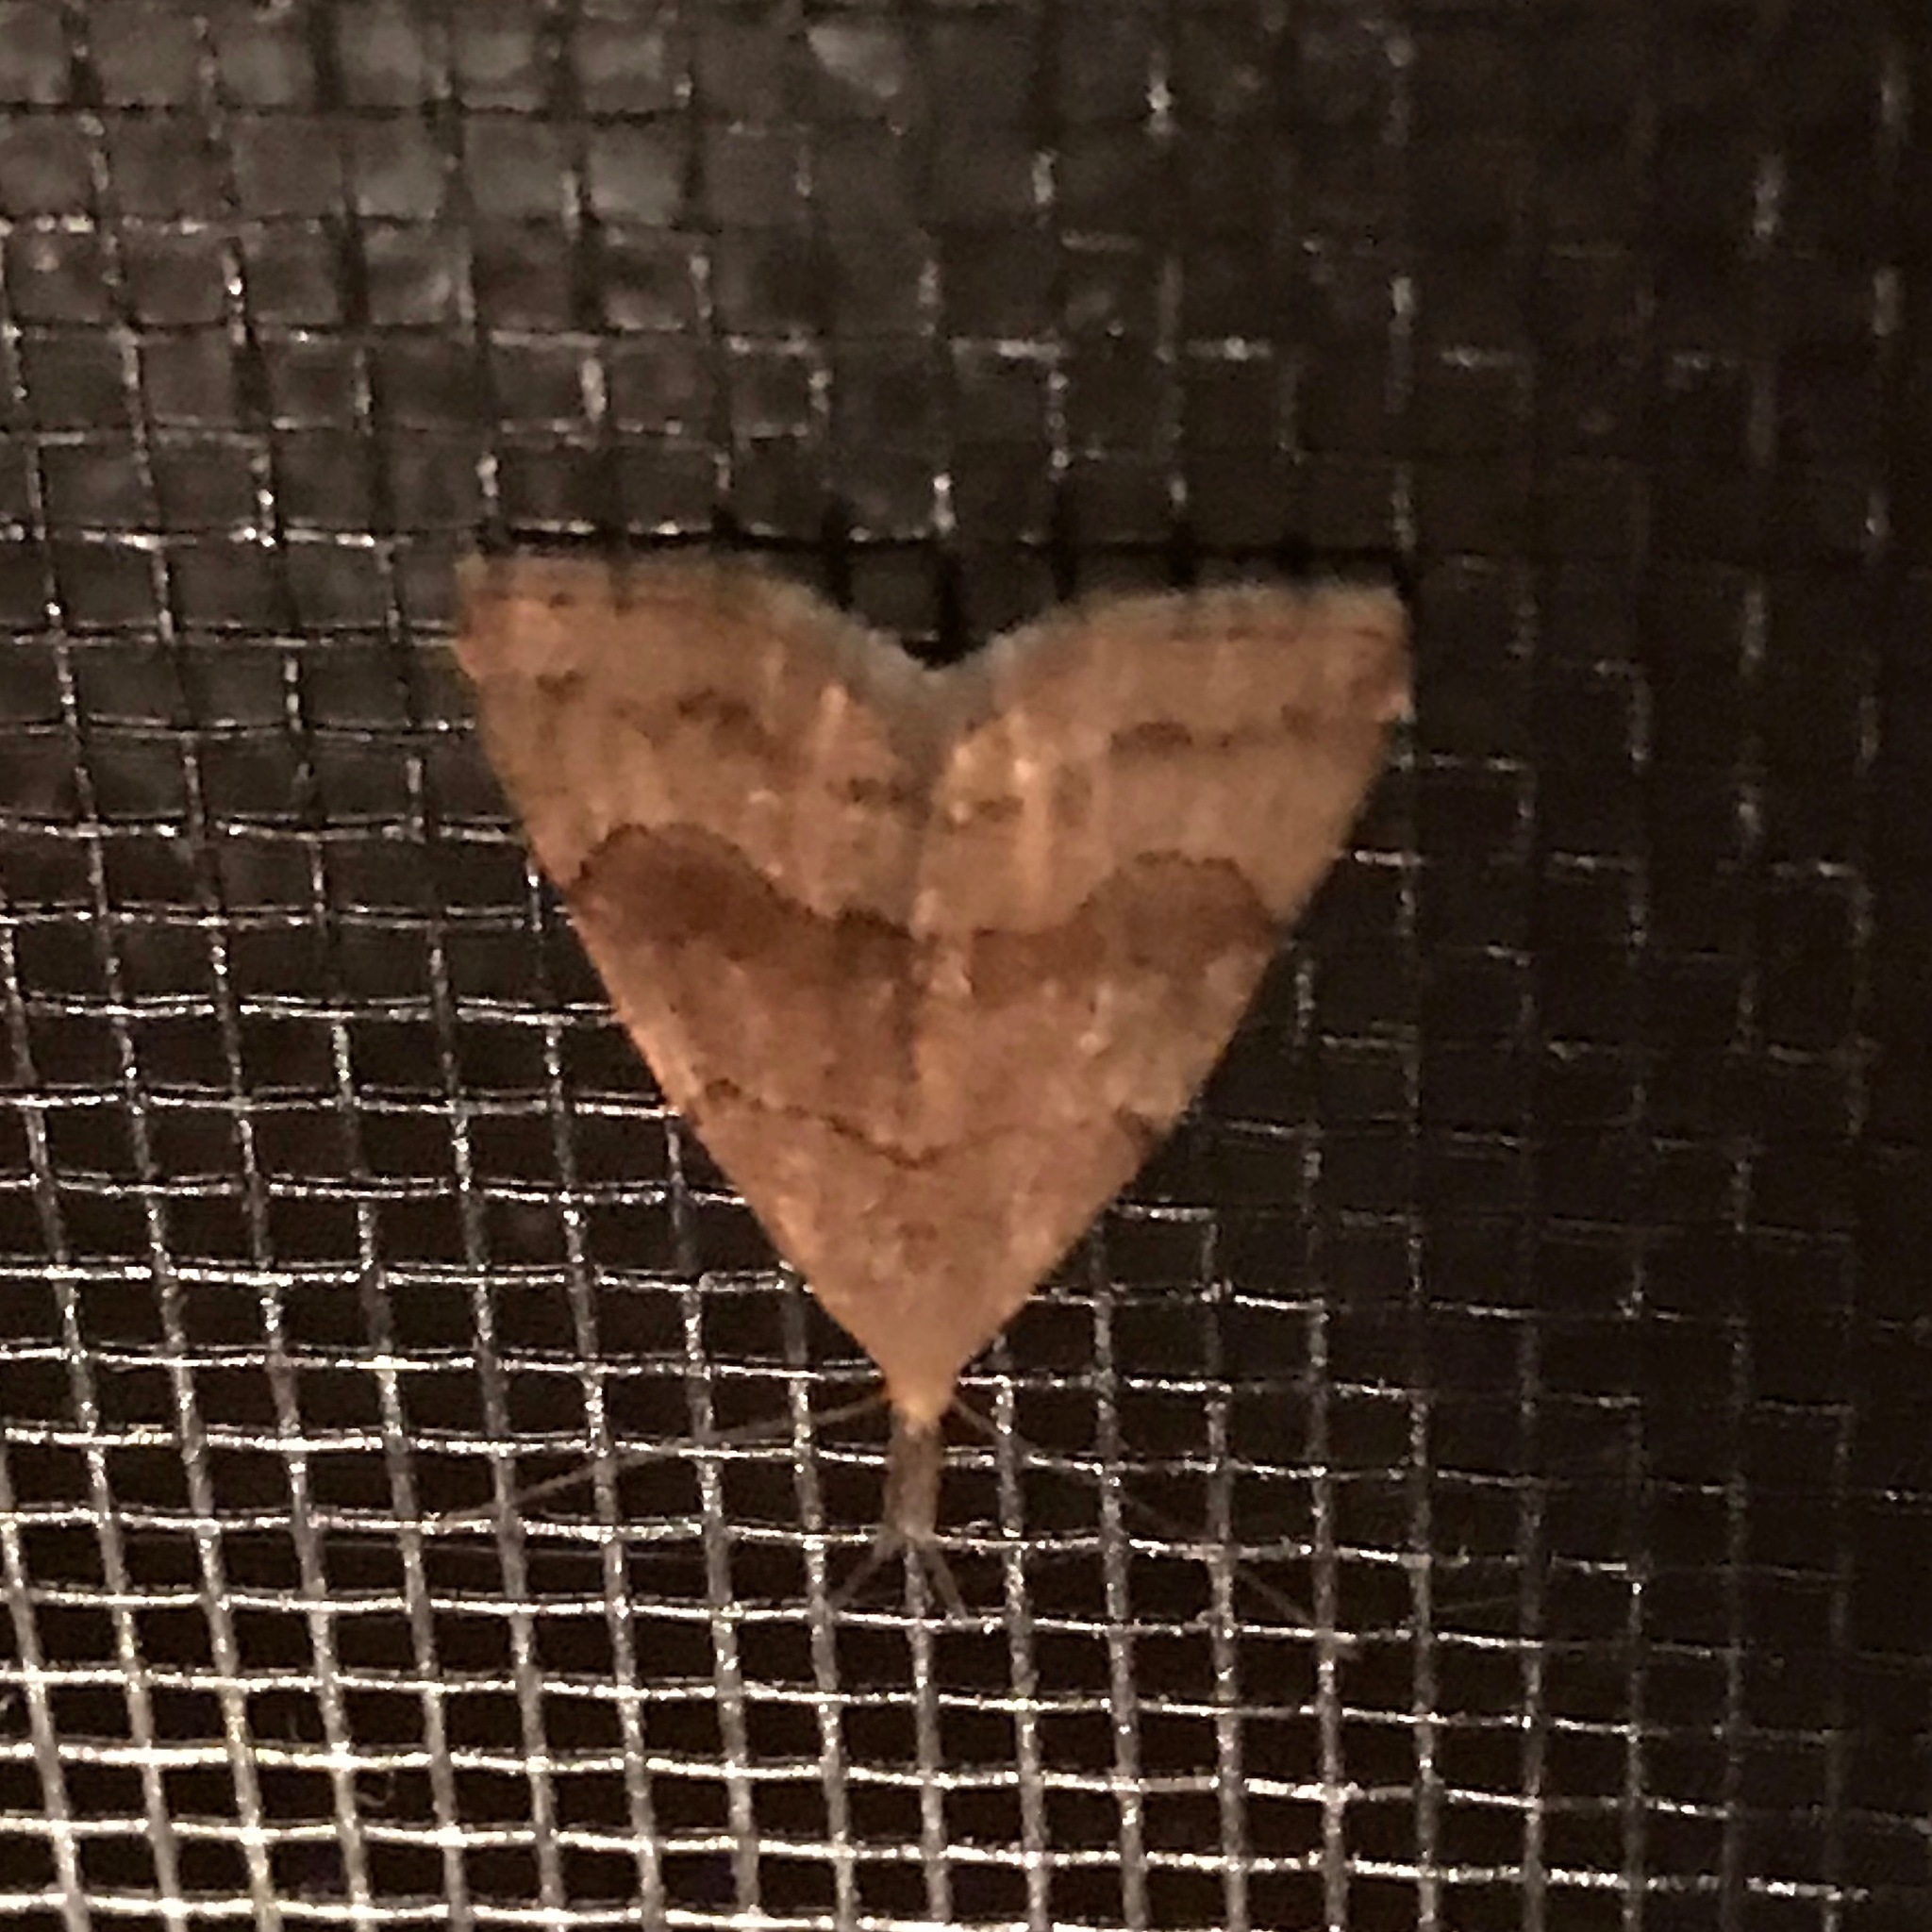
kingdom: Animalia
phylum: Arthropoda
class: Insecta
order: Lepidoptera
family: Erebidae
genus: Phalaenostola
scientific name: Phalaenostola metonalis
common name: Pale phalaenostola moth
